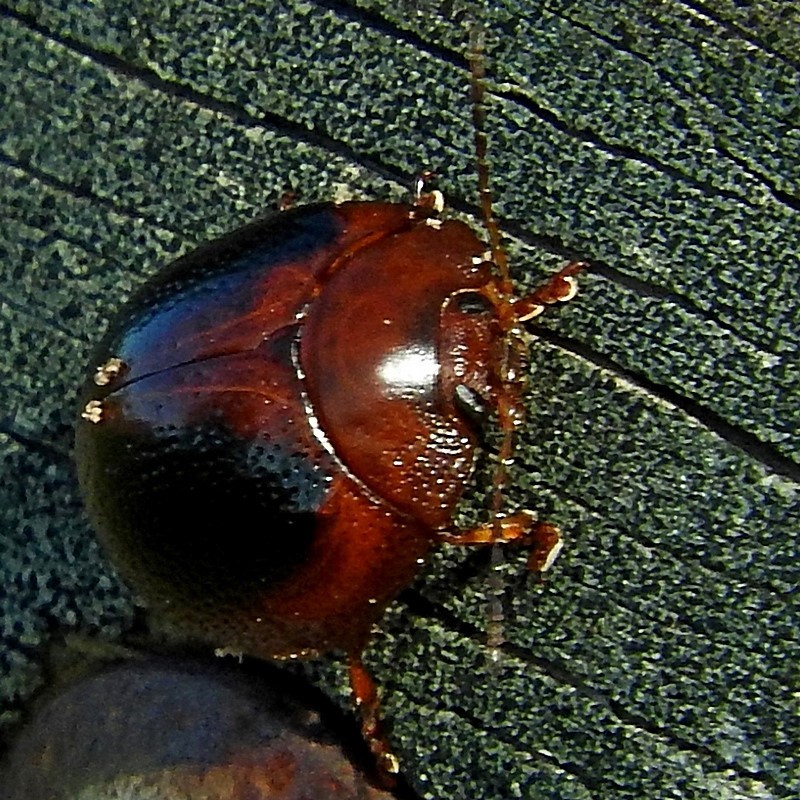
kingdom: Animalia
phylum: Arthropoda
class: Insecta
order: Coleoptera
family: Chrysomelidae
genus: Dicranosterna
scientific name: Dicranosterna
